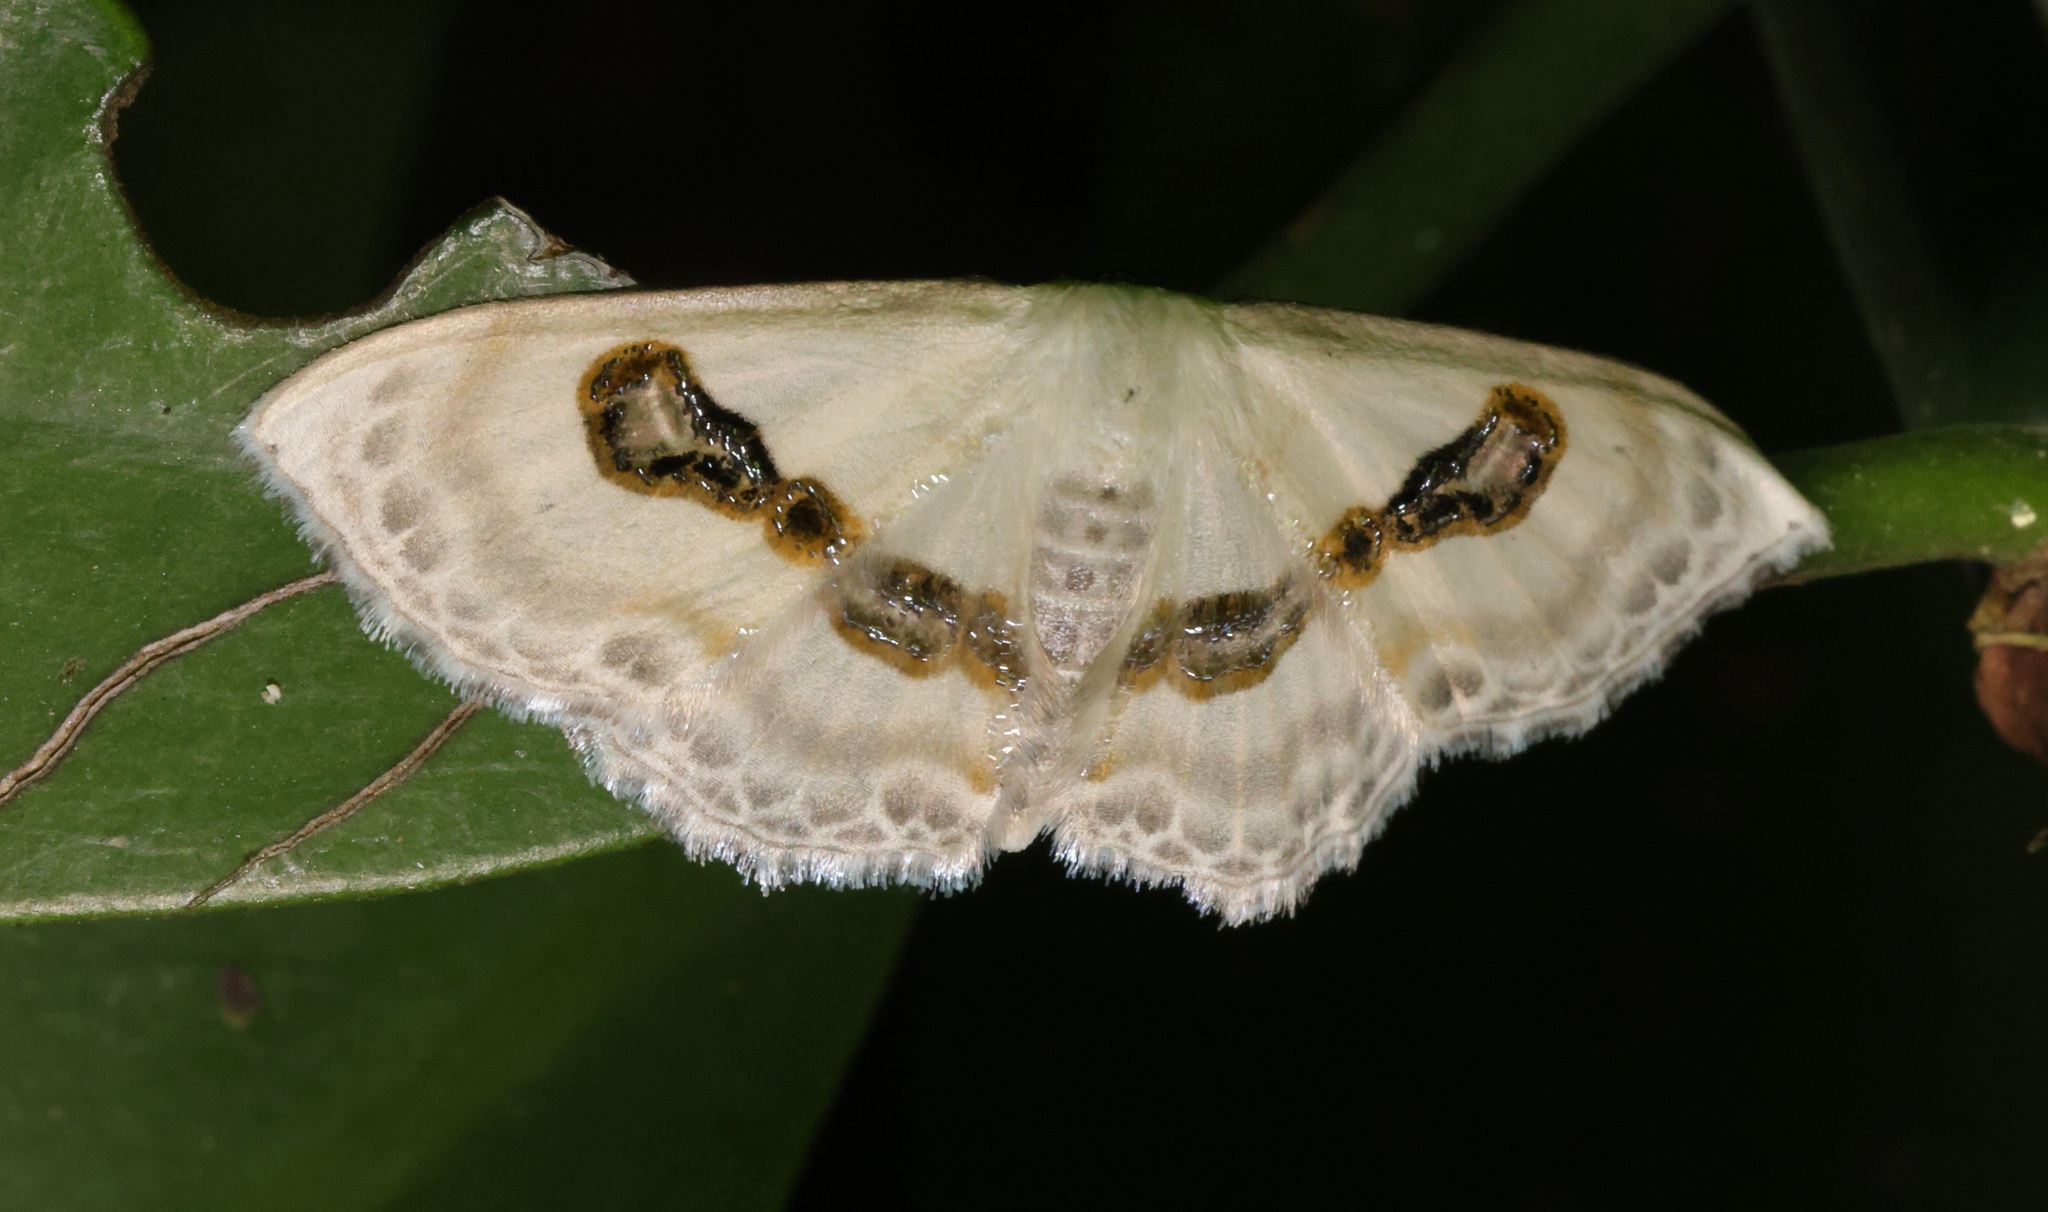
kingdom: Animalia
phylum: Arthropoda
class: Insecta
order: Lepidoptera
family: Geometridae
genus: Problepsis
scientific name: Problepsis vulgaris
